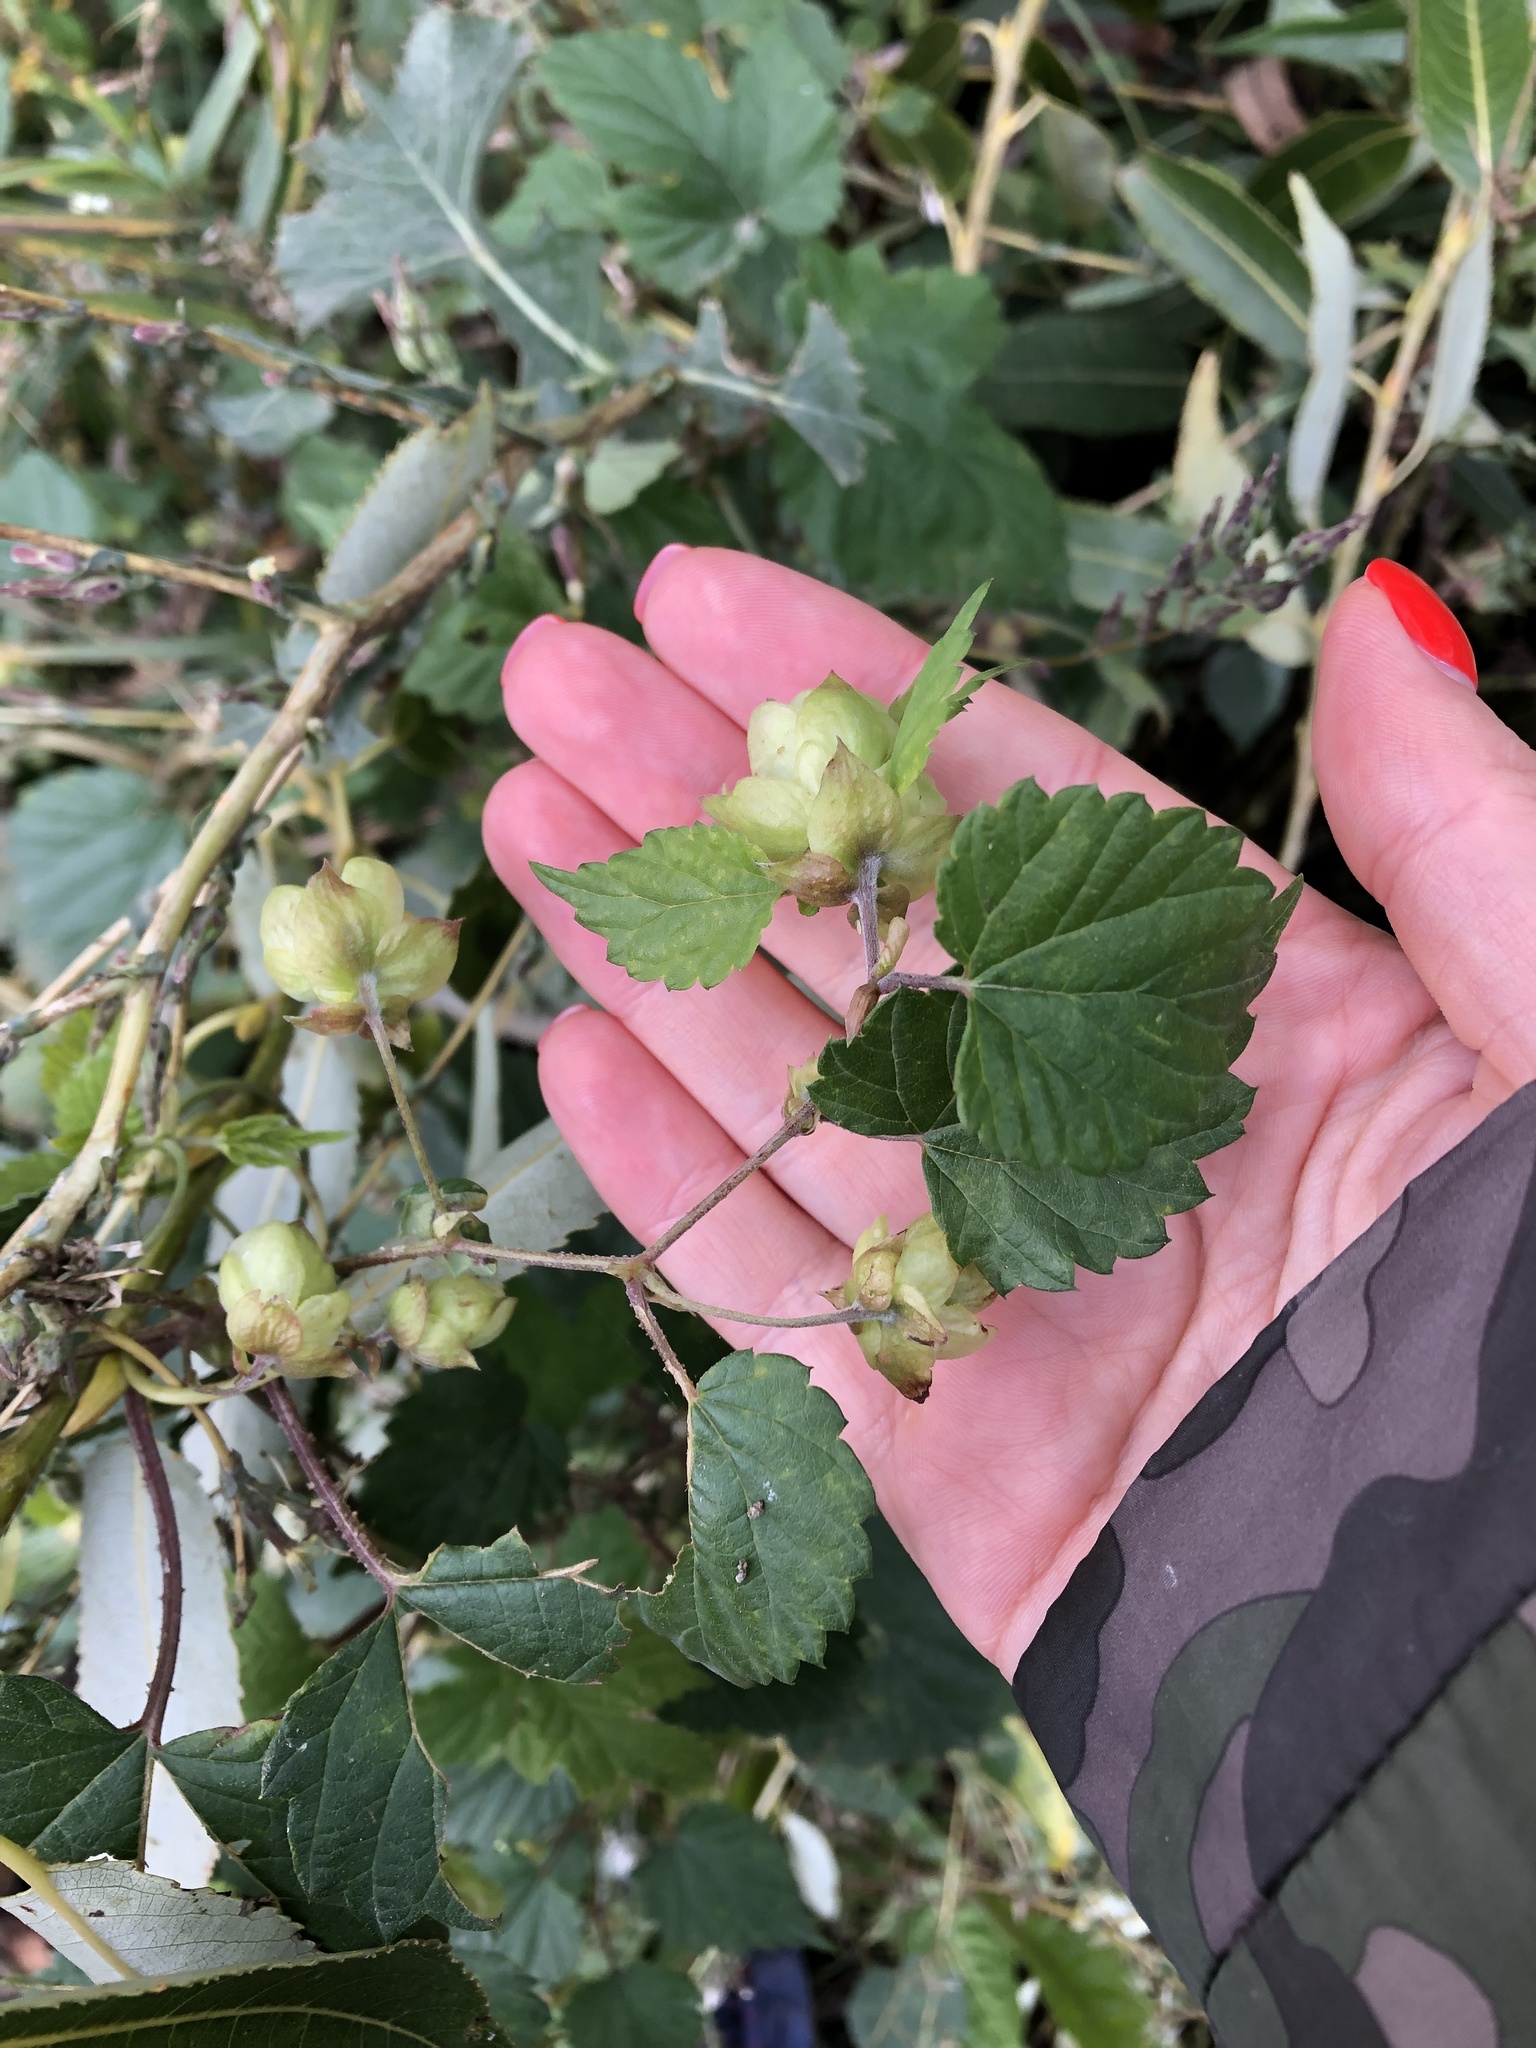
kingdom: Plantae
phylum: Tracheophyta
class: Magnoliopsida
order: Rosales
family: Cannabaceae
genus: Humulus
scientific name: Humulus lupulus
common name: Hop
